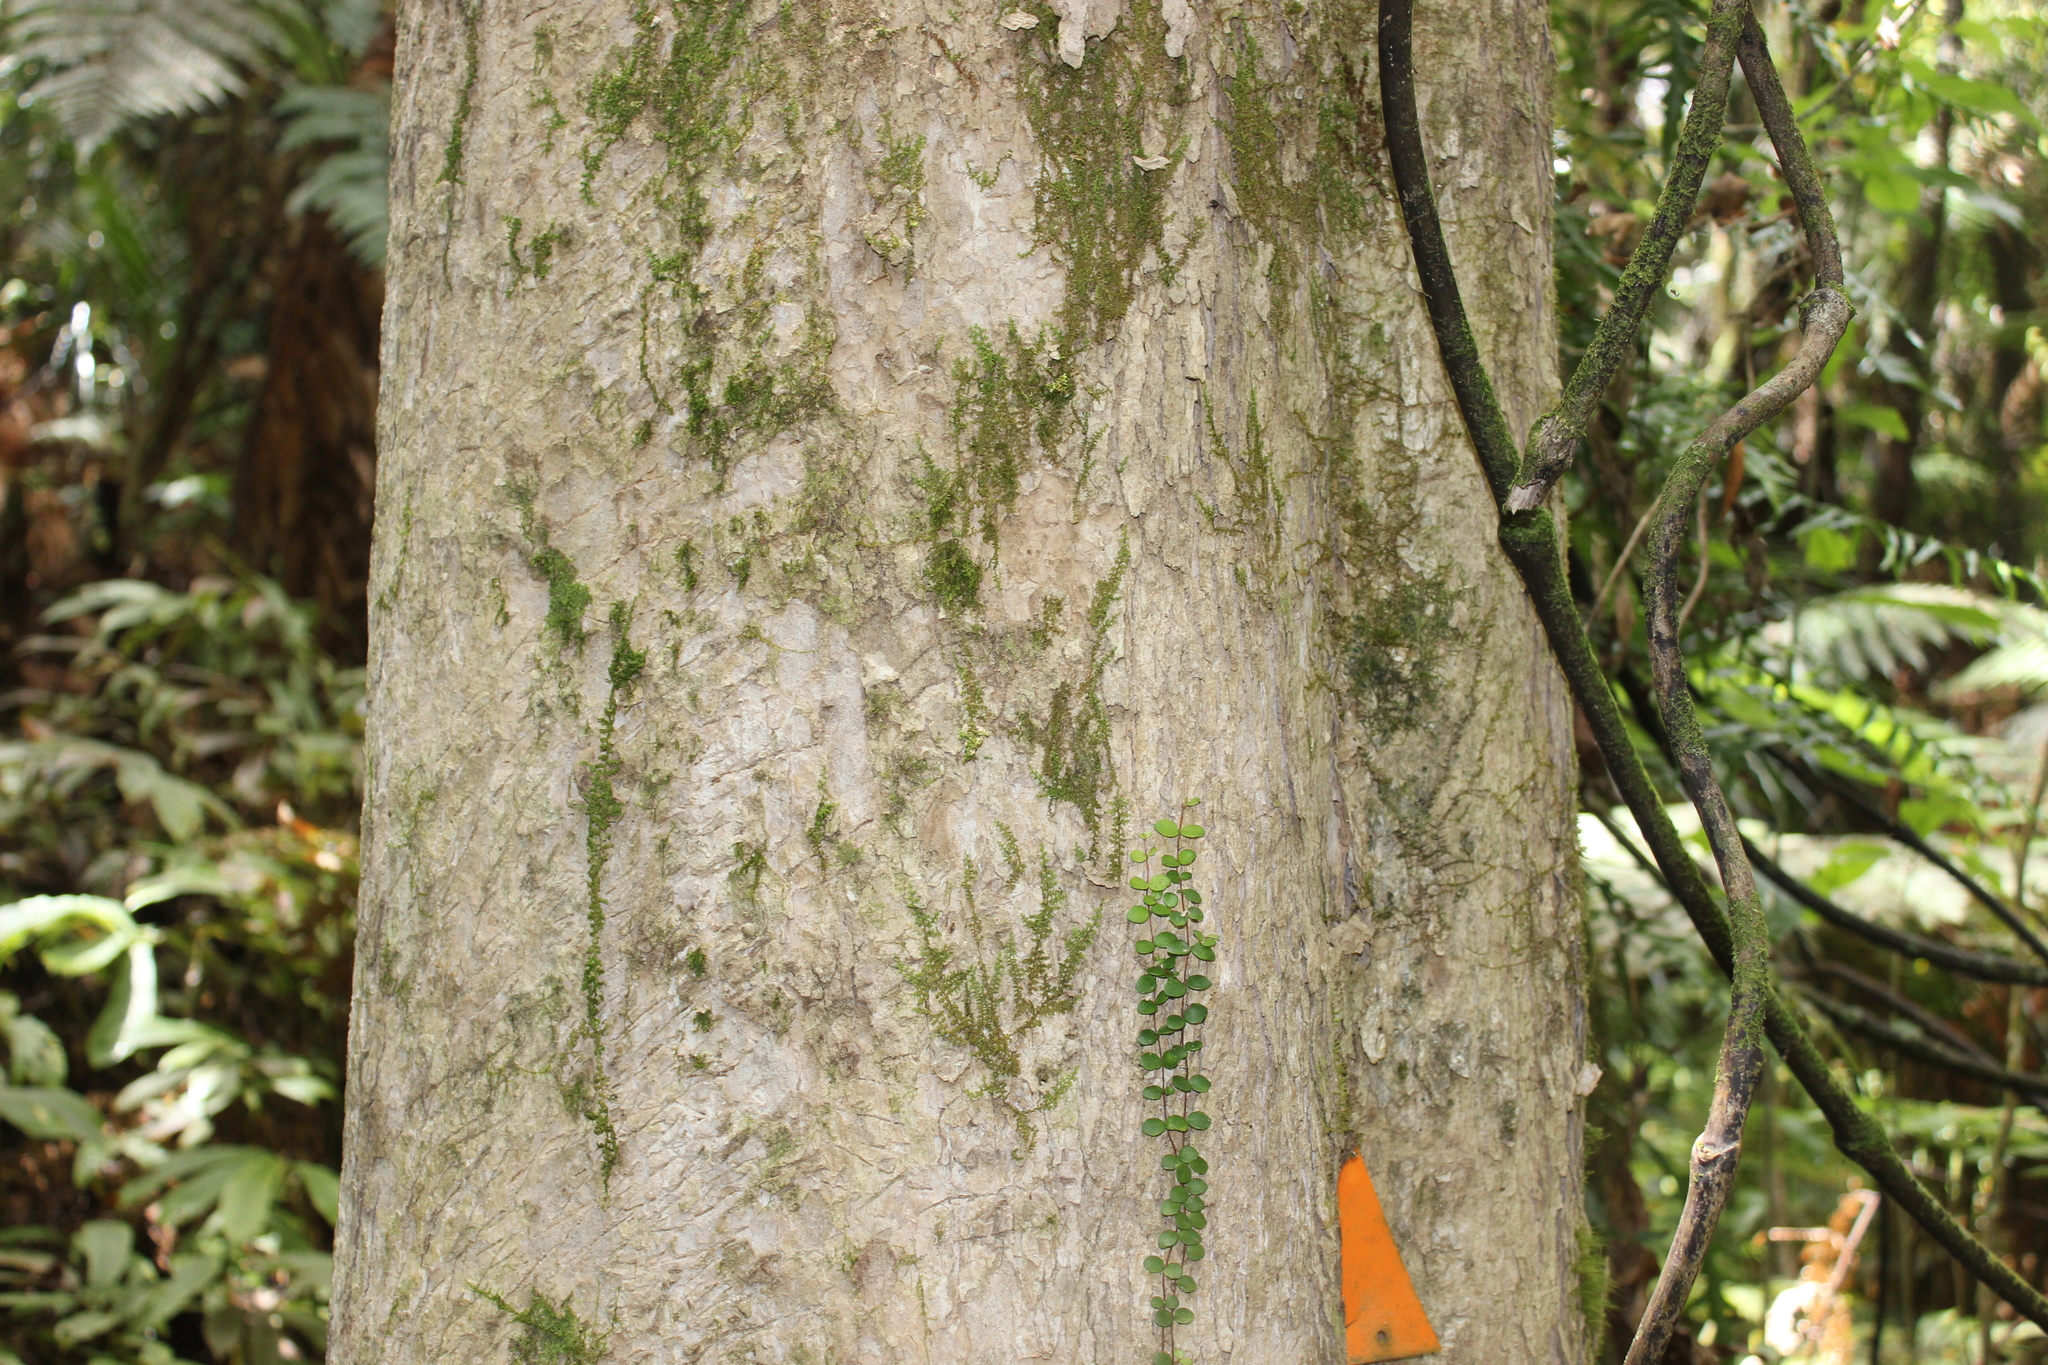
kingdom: Plantae
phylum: Tracheophyta
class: Magnoliopsida
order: Laurales
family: Atherospermataceae
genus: Laurelia
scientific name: Laurelia novae-zelandiae
